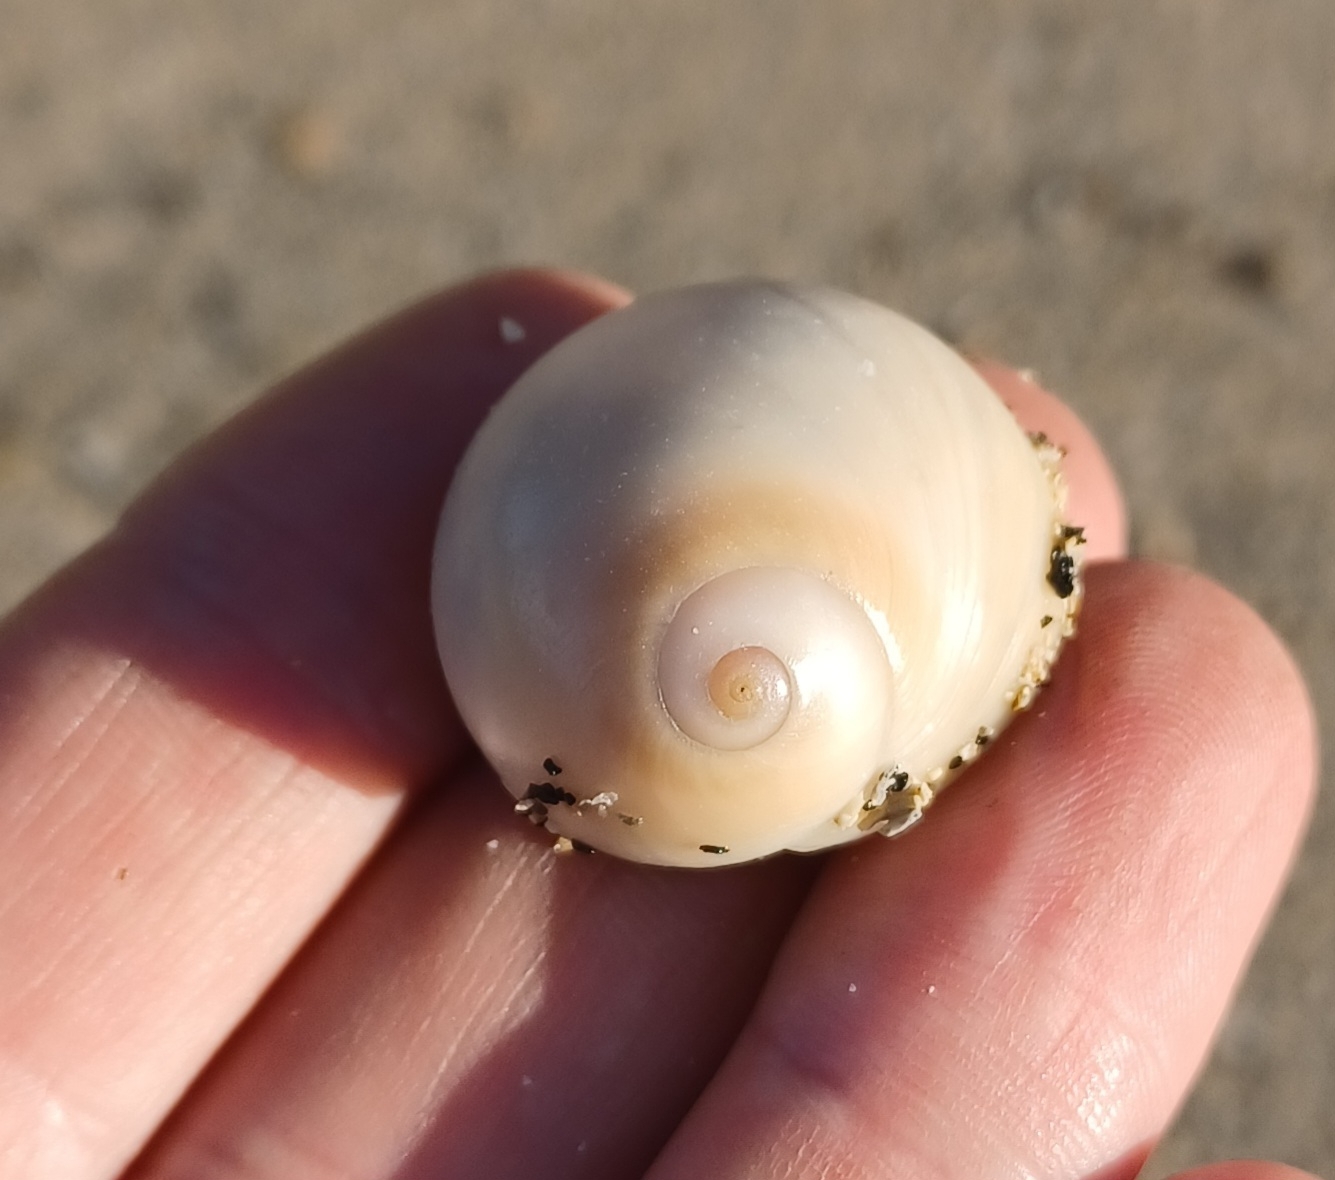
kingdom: Animalia
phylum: Mollusca
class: Gastropoda
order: Littorinimorpha
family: Naticidae
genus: Neverita
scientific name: Neverita didyma
